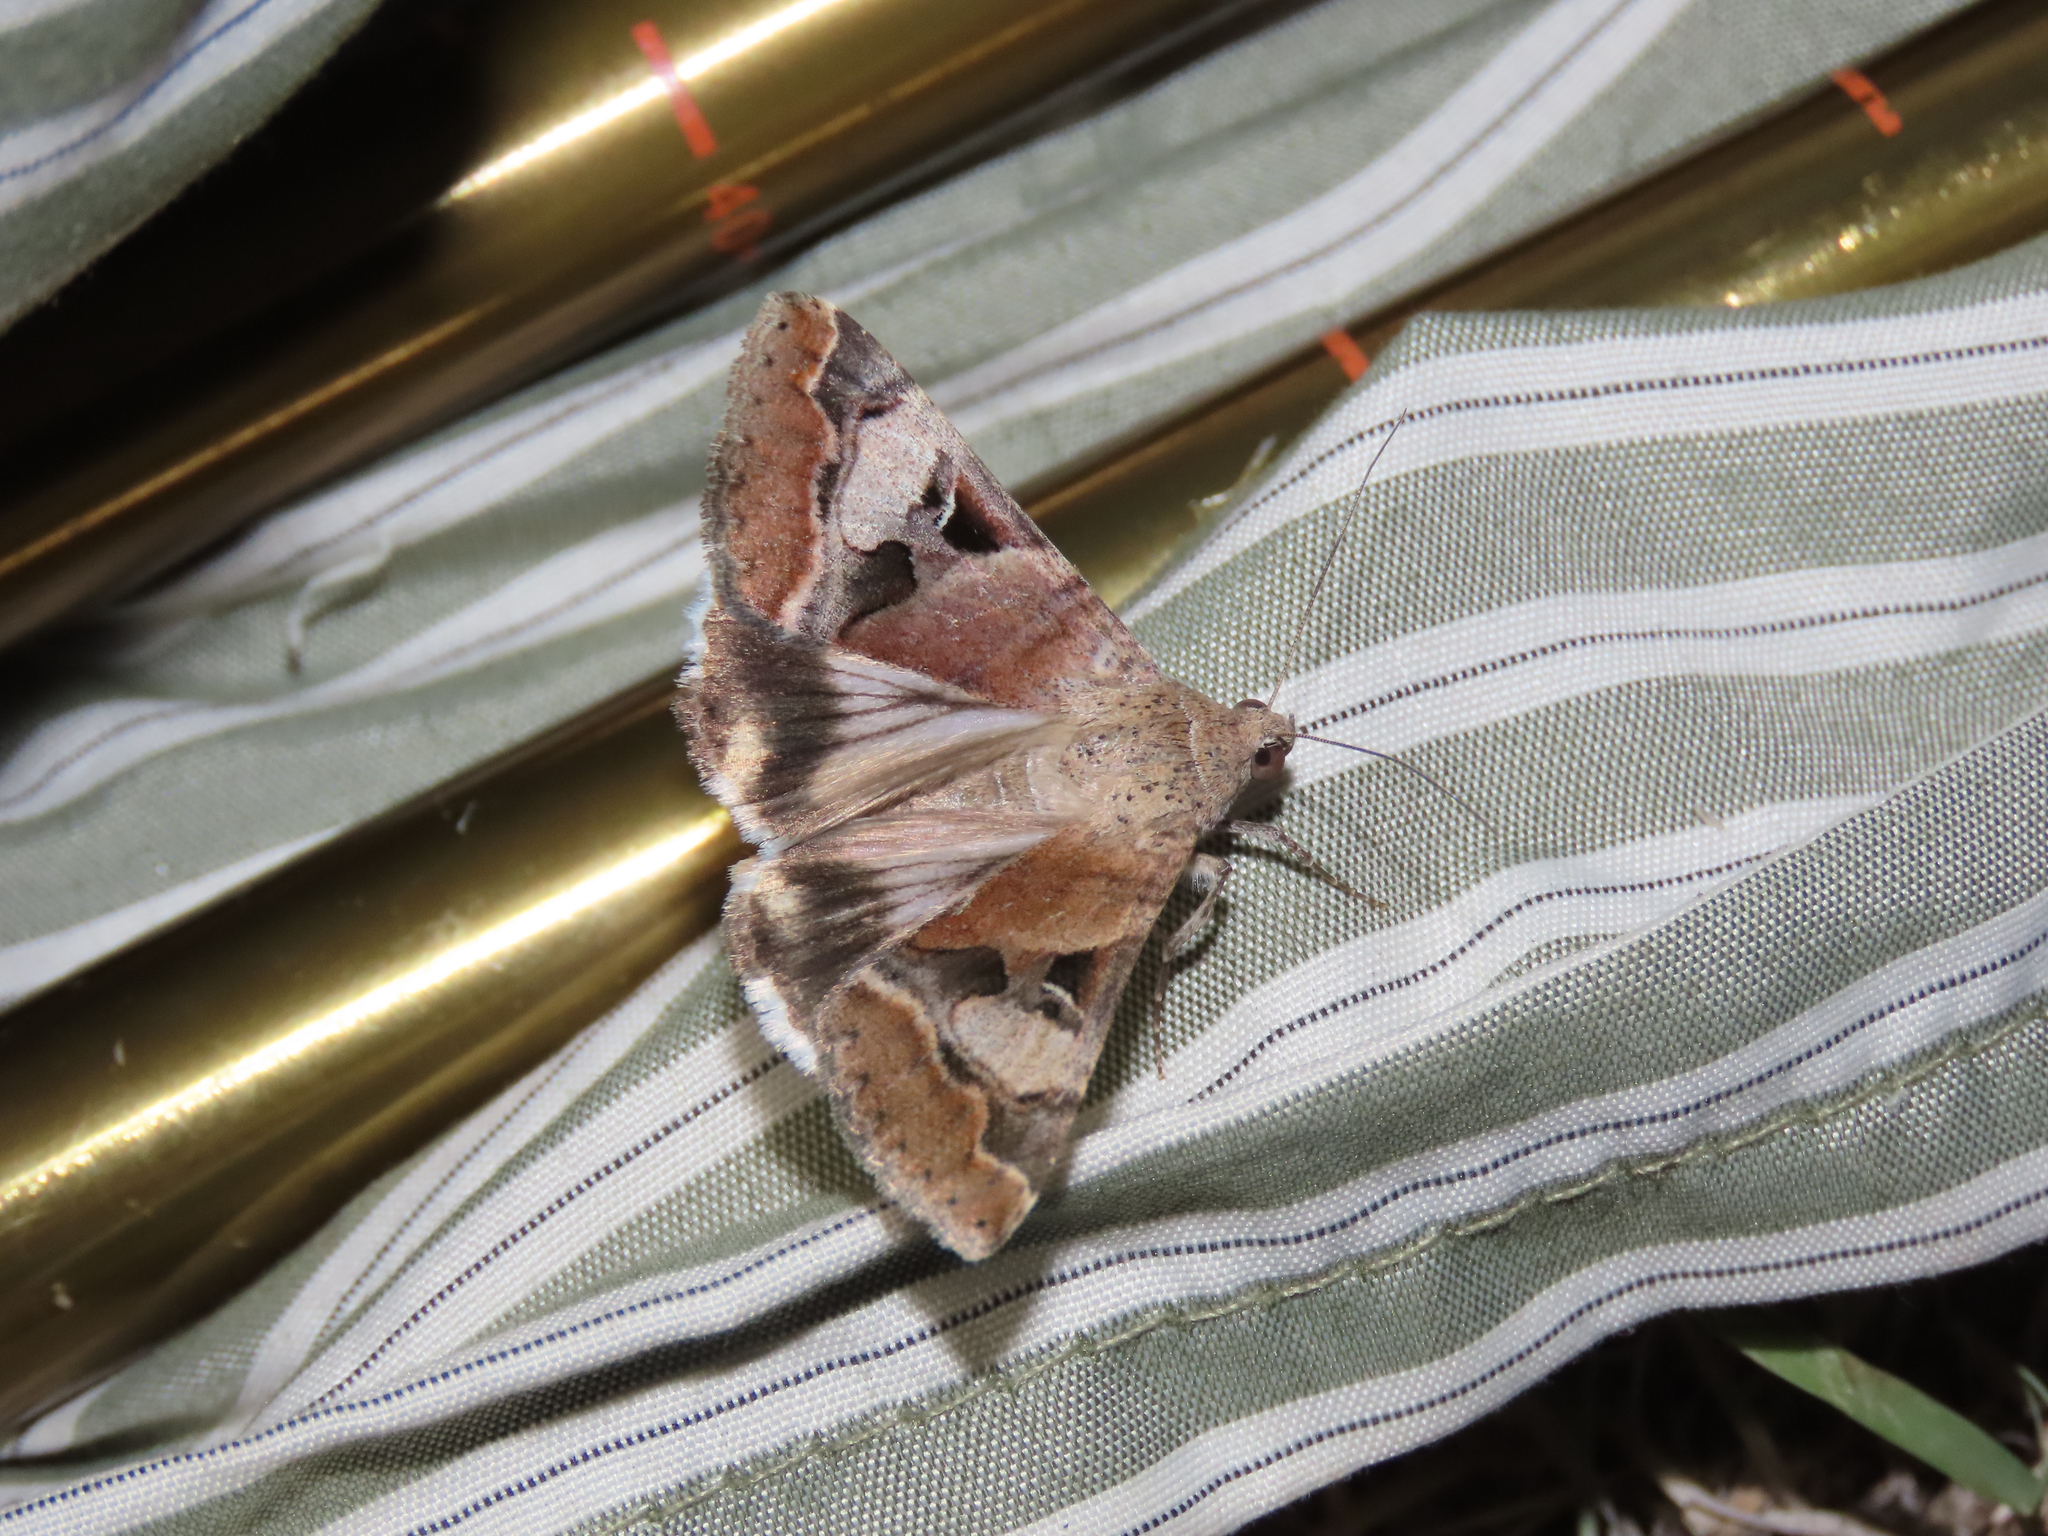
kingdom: Animalia
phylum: Arthropoda
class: Insecta
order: Lepidoptera
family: Erebidae
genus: Melipotis
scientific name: Melipotis perpendicularis
